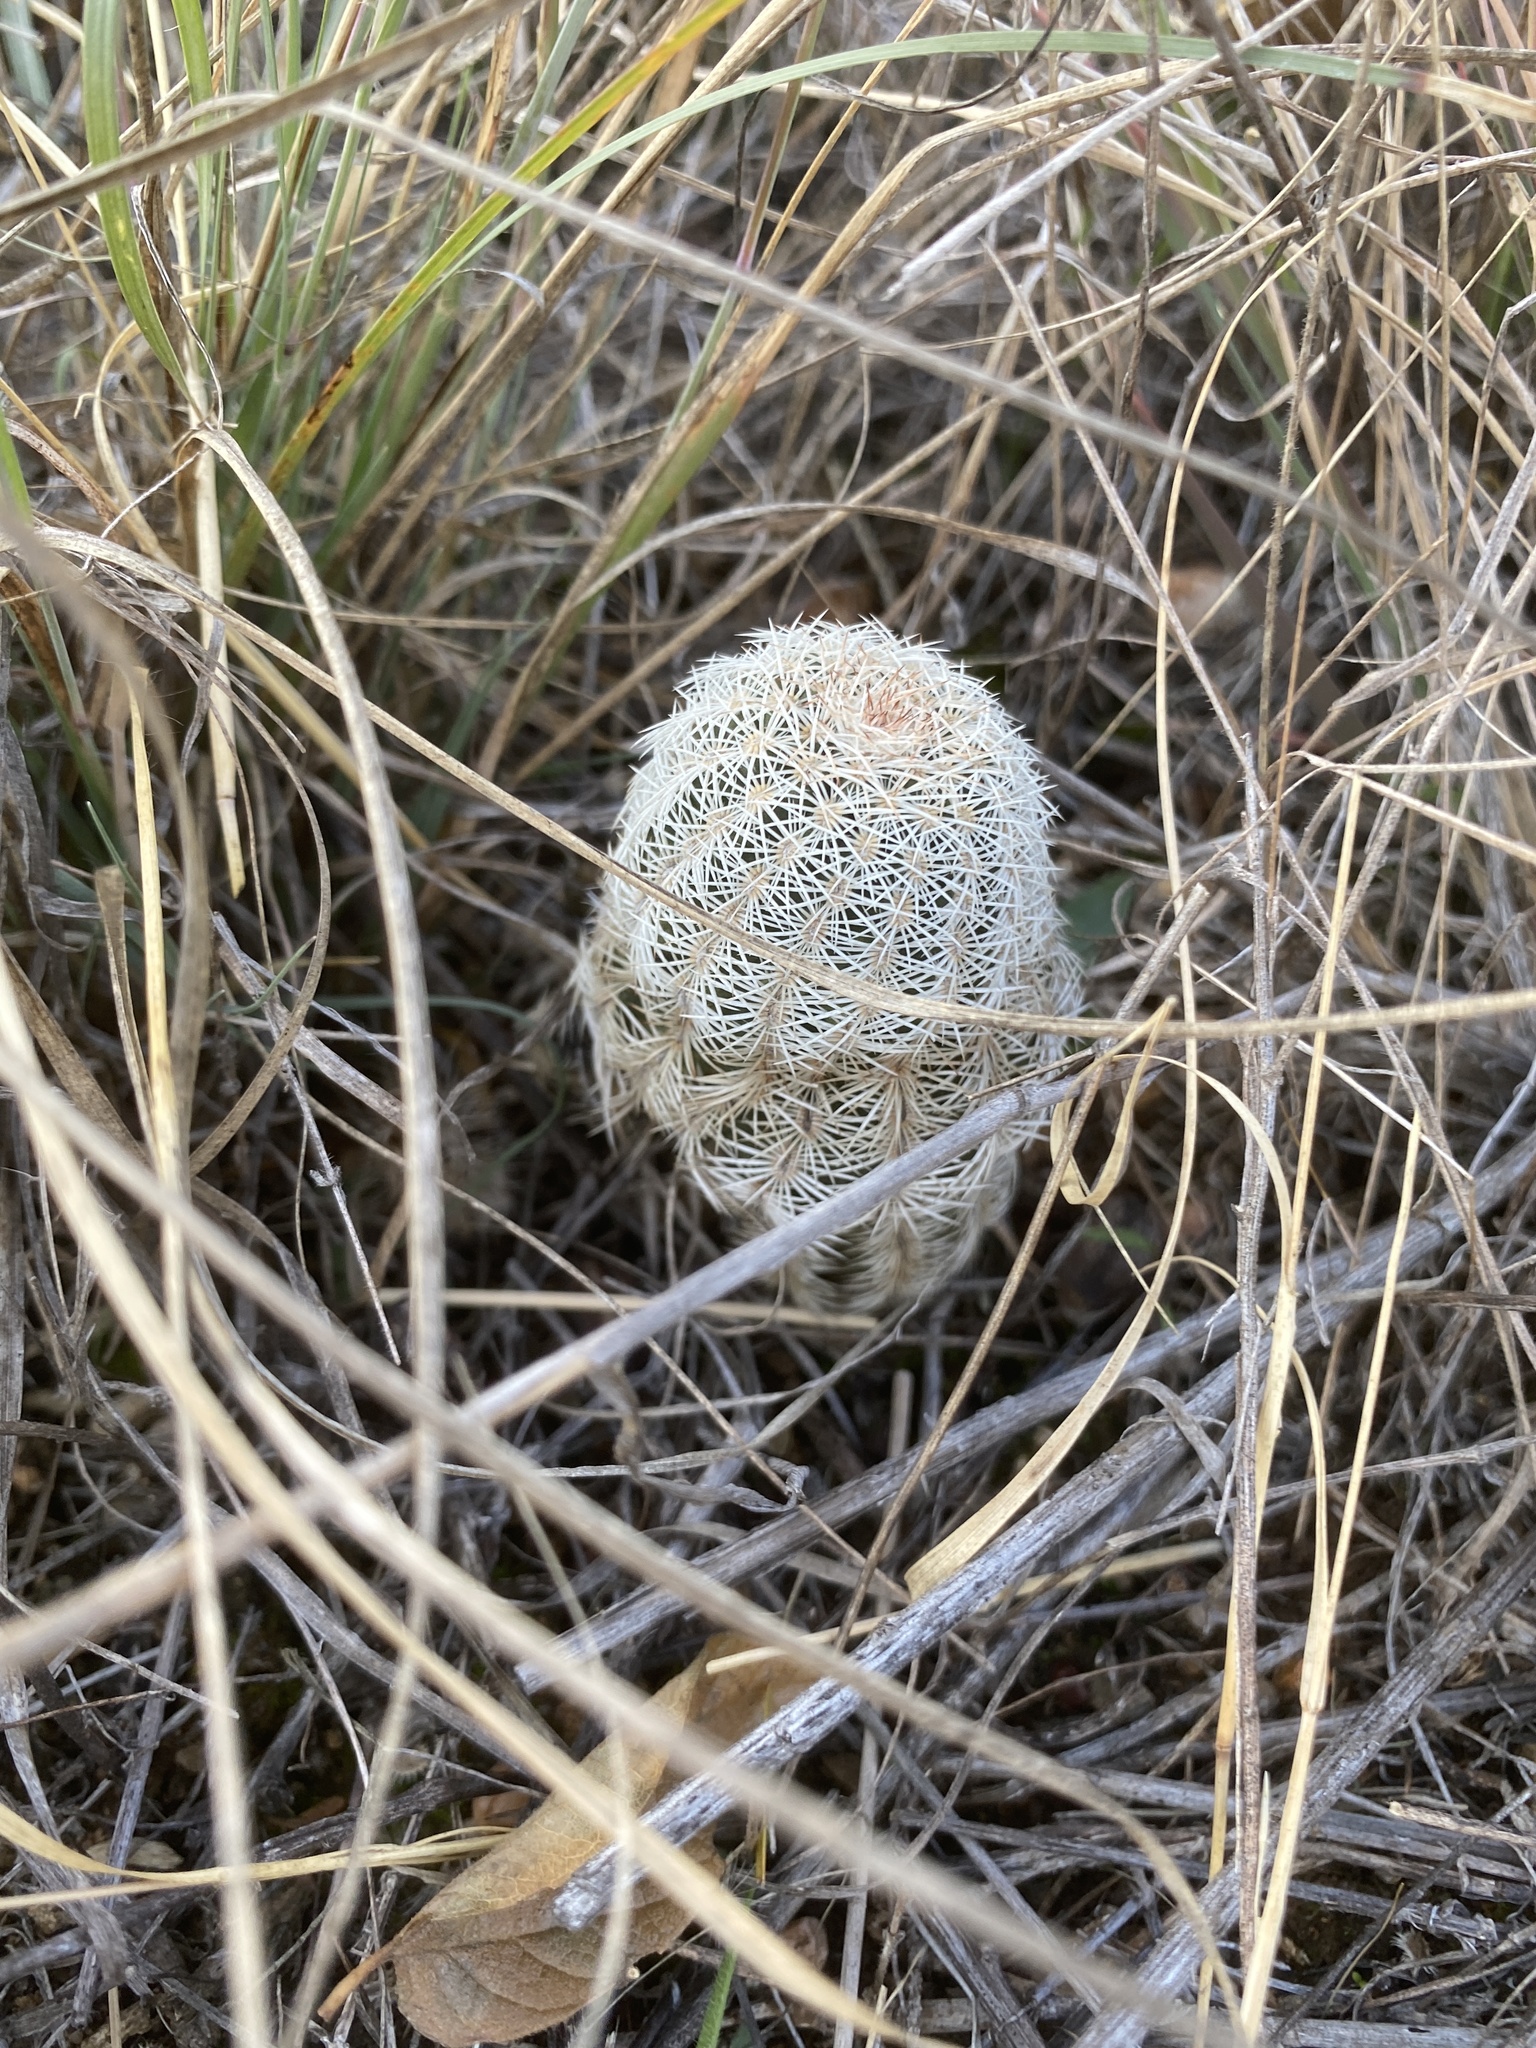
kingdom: Plantae
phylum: Tracheophyta
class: Magnoliopsida
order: Caryophyllales
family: Cactaceae
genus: Echinocereus
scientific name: Echinocereus reichenbachii
